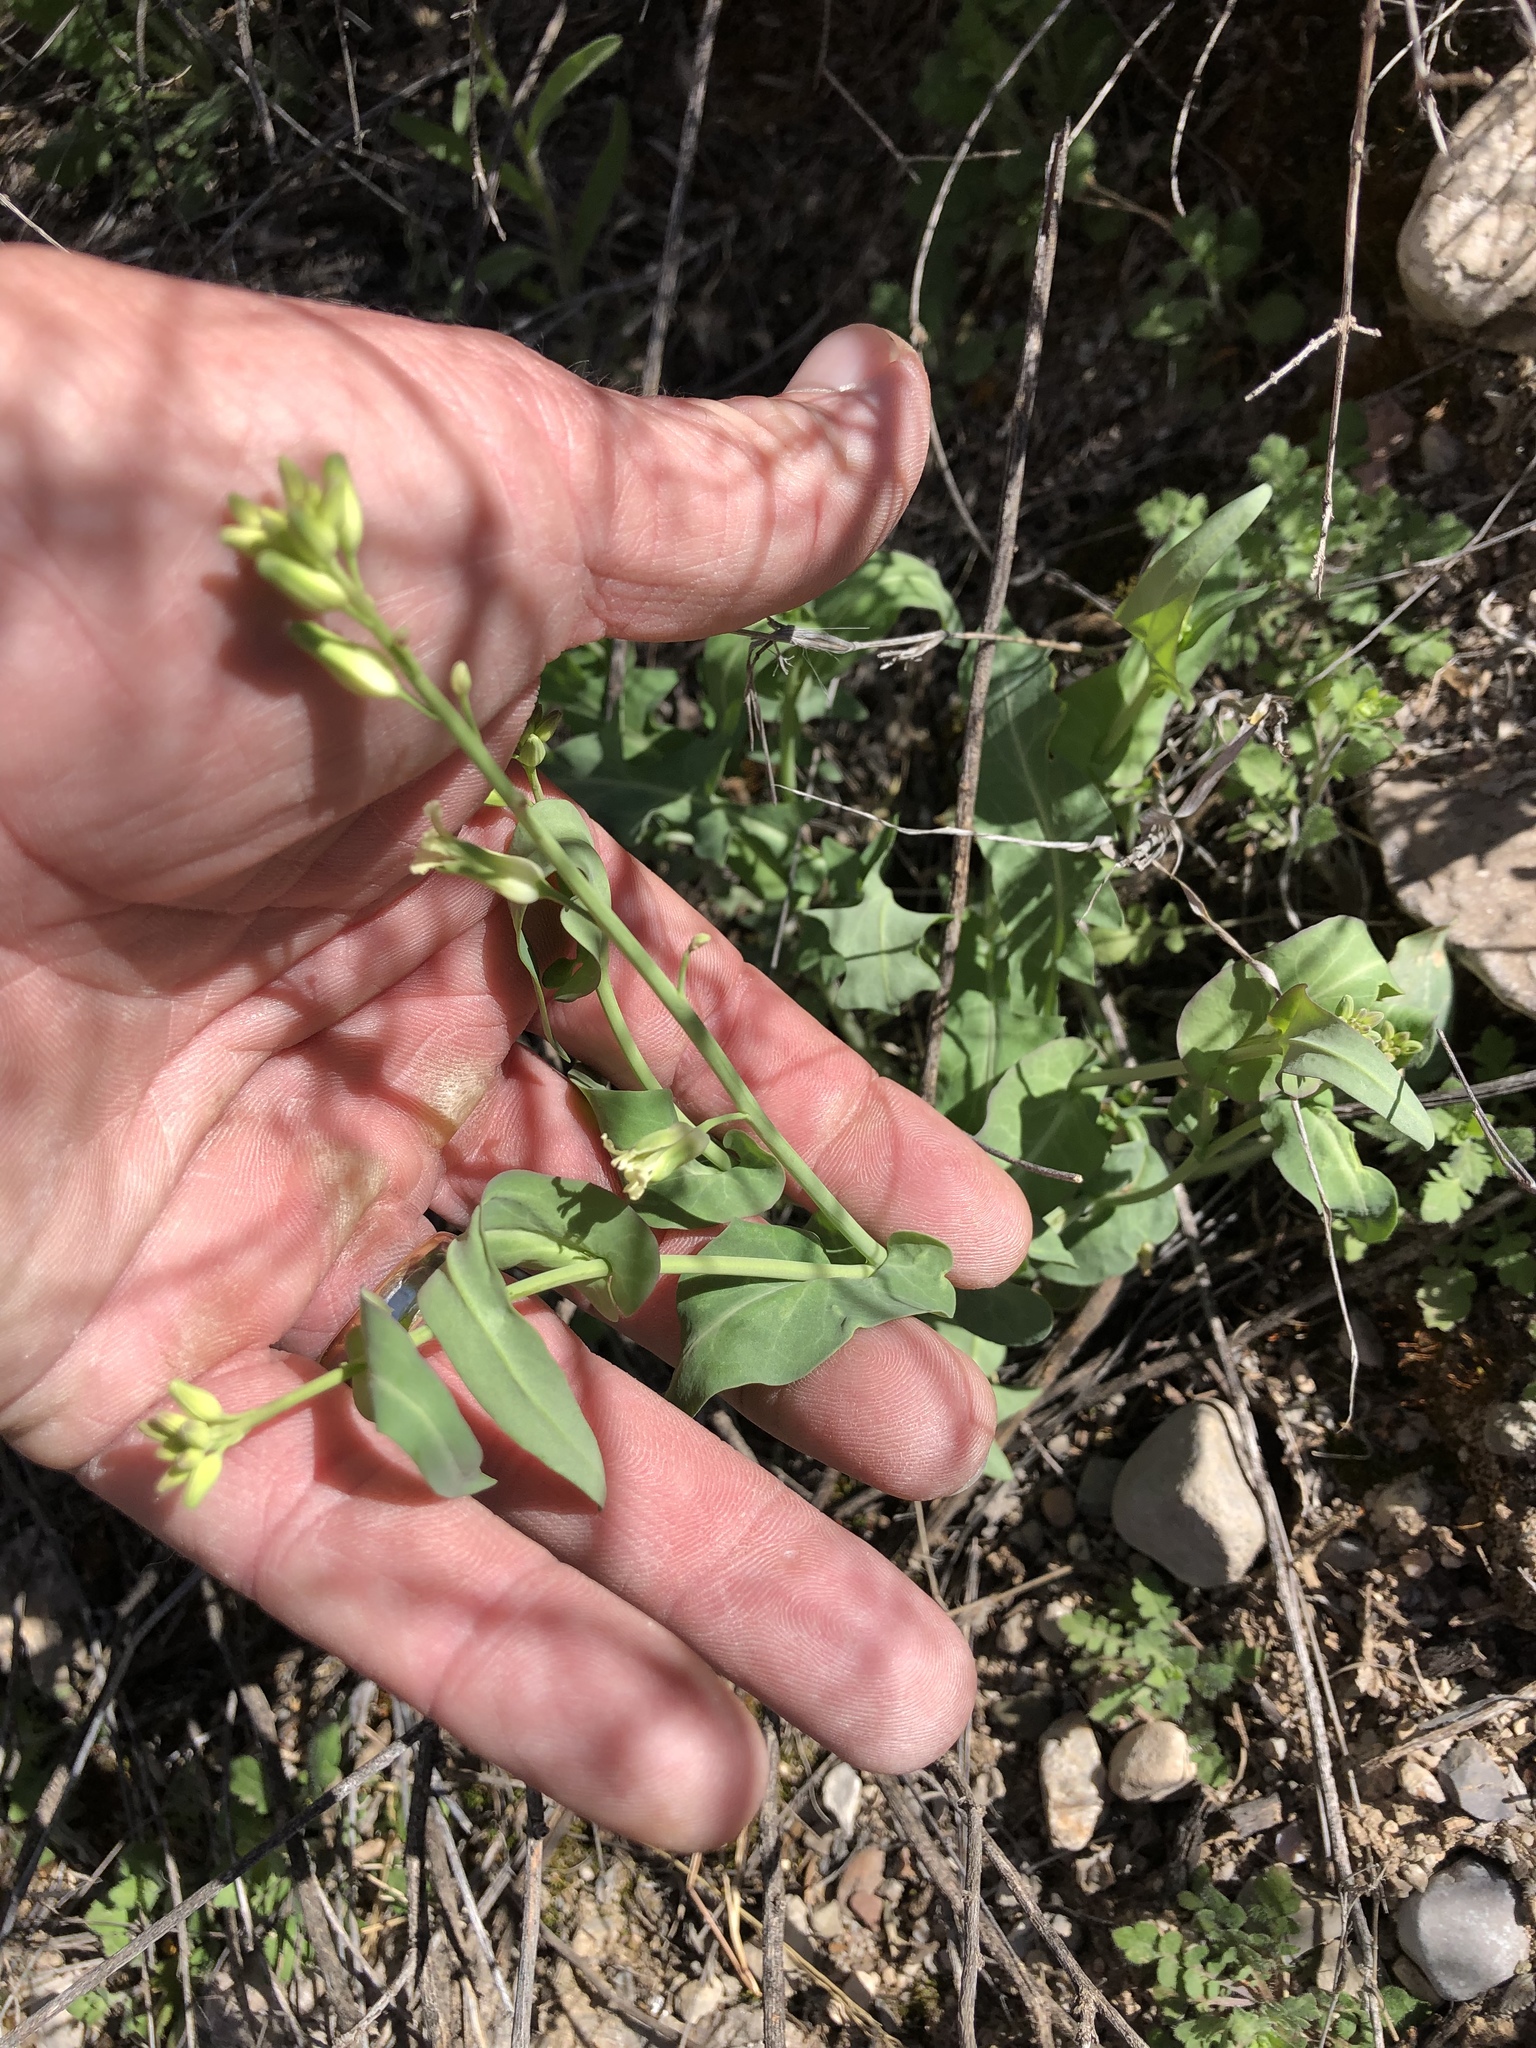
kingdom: Plantae
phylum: Tracheophyta
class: Magnoliopsida
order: Brassicales
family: Brassicaceae
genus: Streptanthus
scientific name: Streptanthus carinatus
